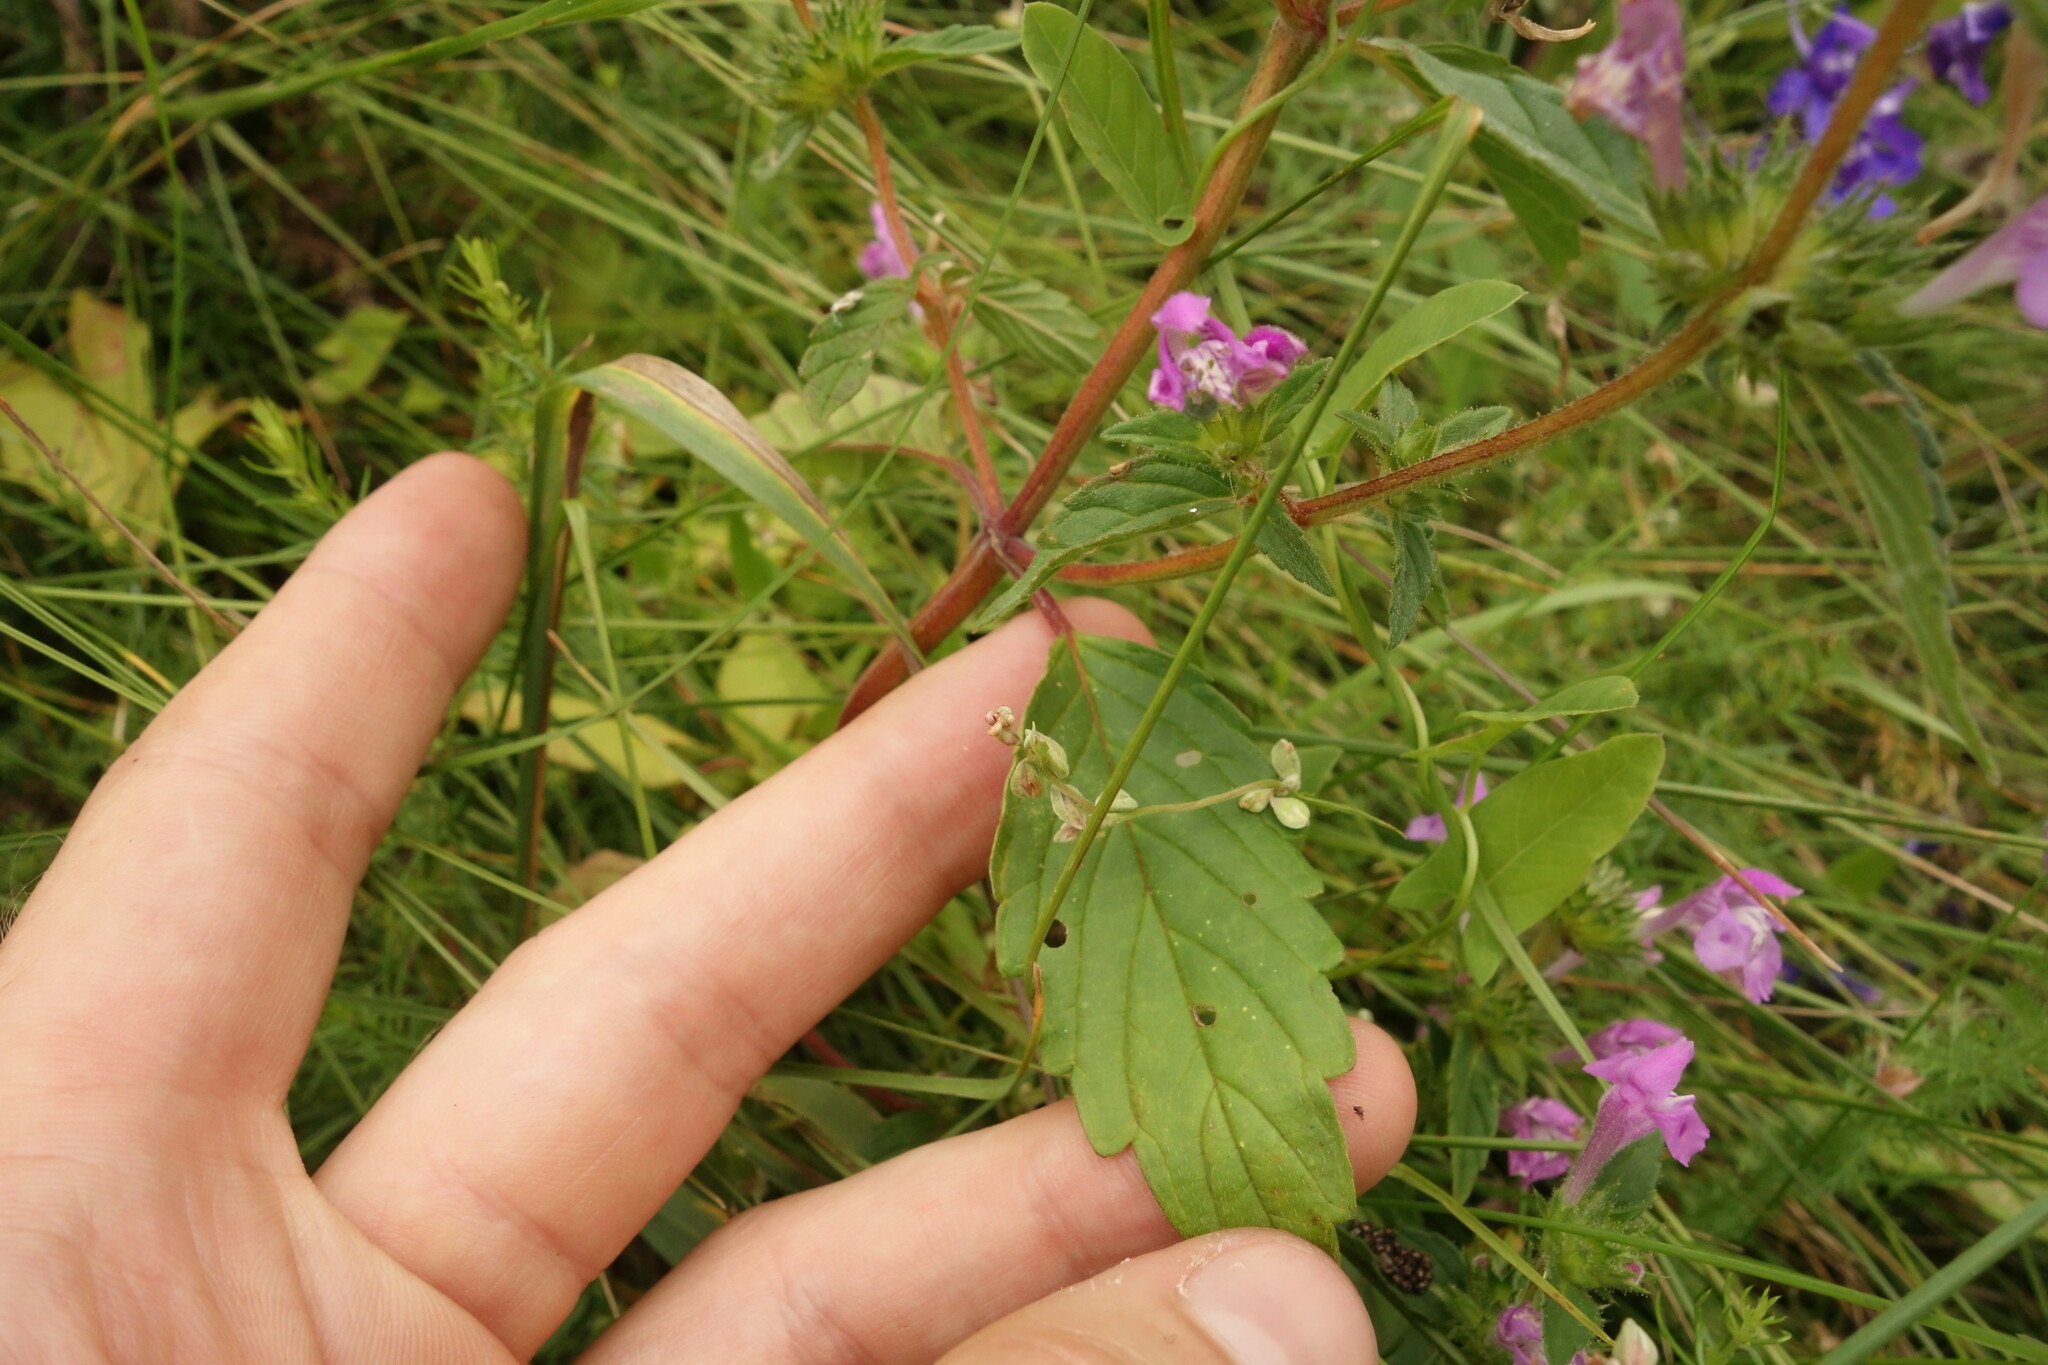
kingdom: Plantae
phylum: Tracheophyta
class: Magnoliopsida
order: Lamiales
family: Lamiaceae
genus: Galeopsis
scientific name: Galeopsis ladanum
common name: Broad-leaved hemp-nettle
